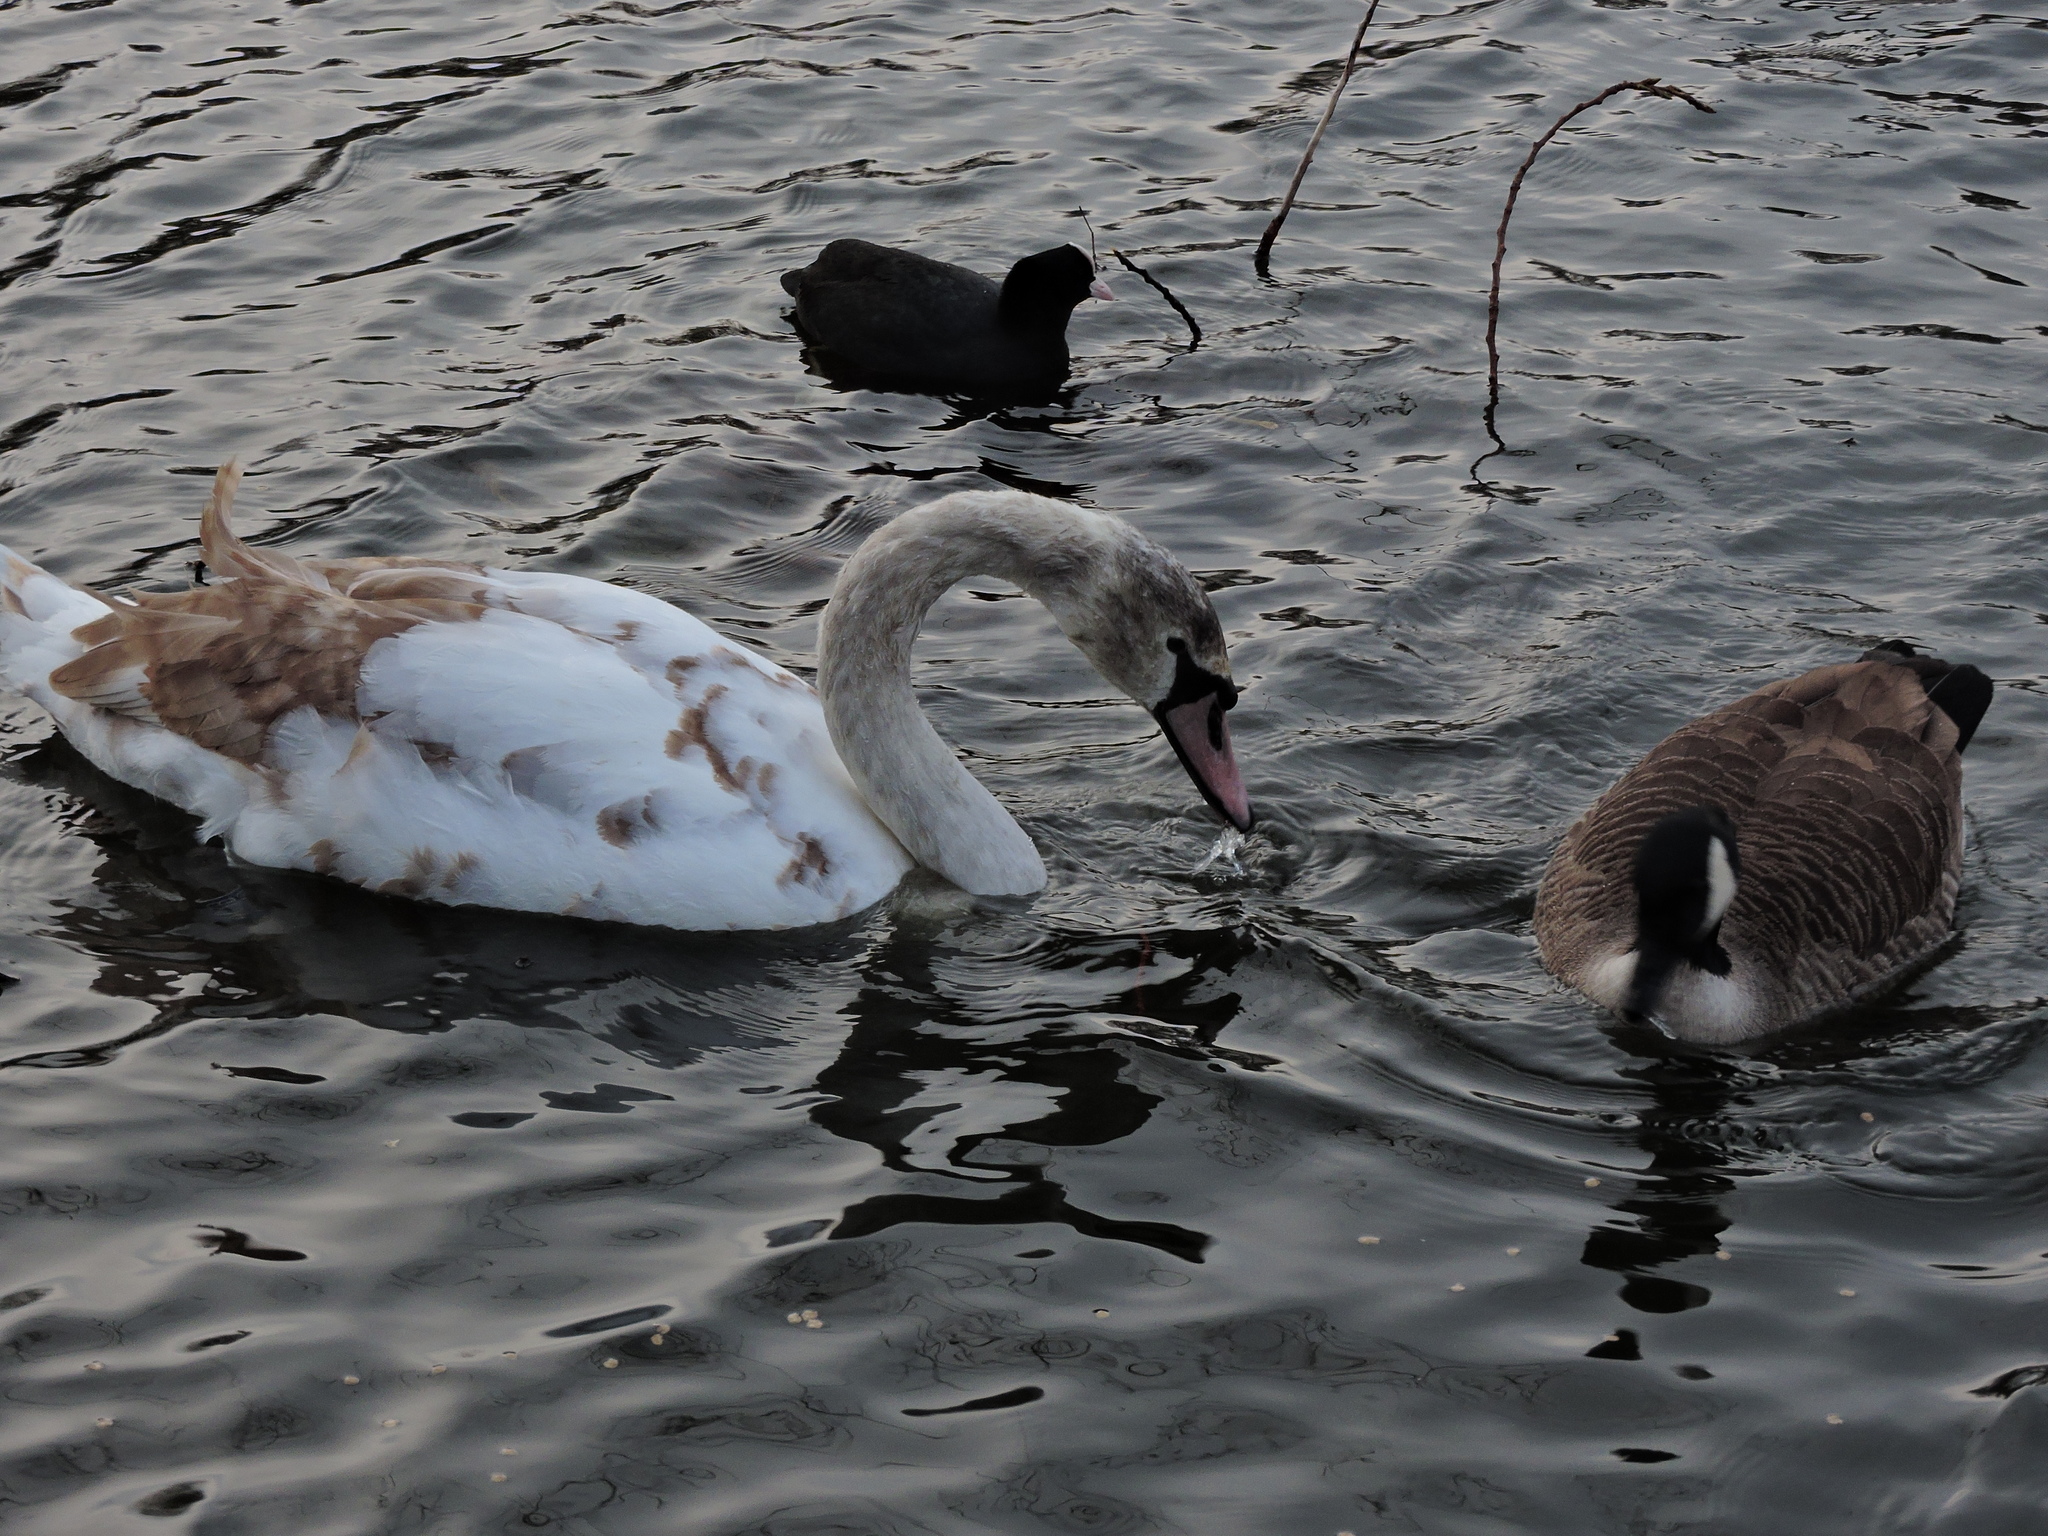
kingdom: Animalia
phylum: Chordata
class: Aves
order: Anseriformes
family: Anatidae
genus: Cygnus
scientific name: Cygnus olor
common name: Mute swan
